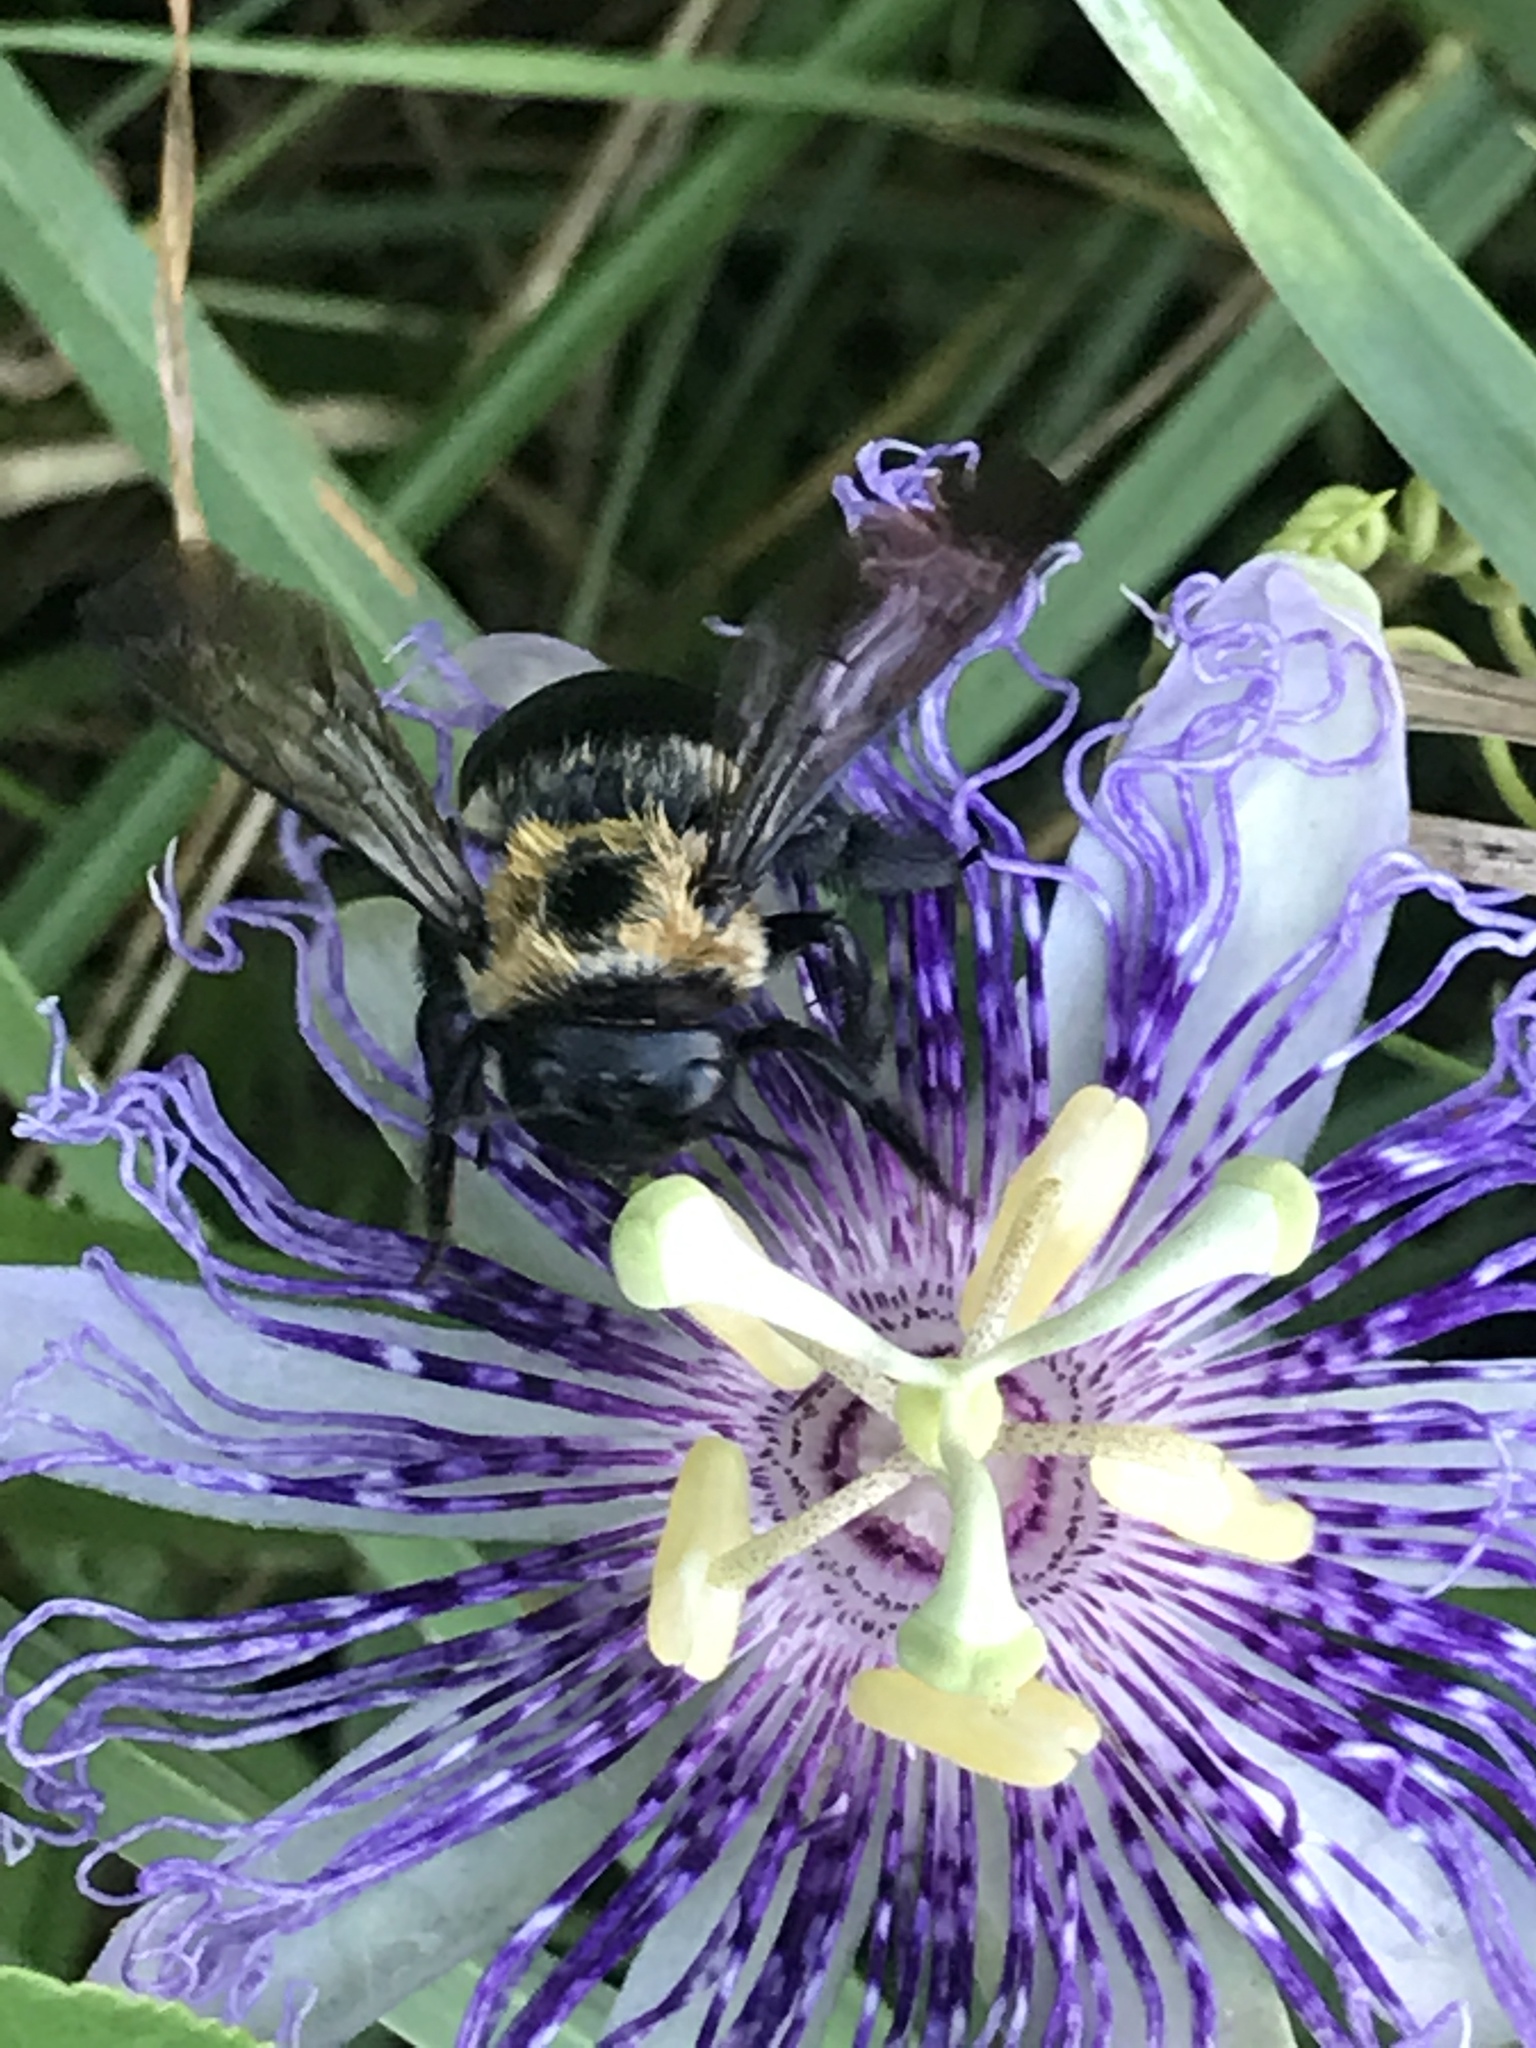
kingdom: Animalia
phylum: Arthropoda
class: Insecta
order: Hymenoptera
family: Apidae
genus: Xylocopa
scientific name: Xylocopa virginica
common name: Carpenter bee
